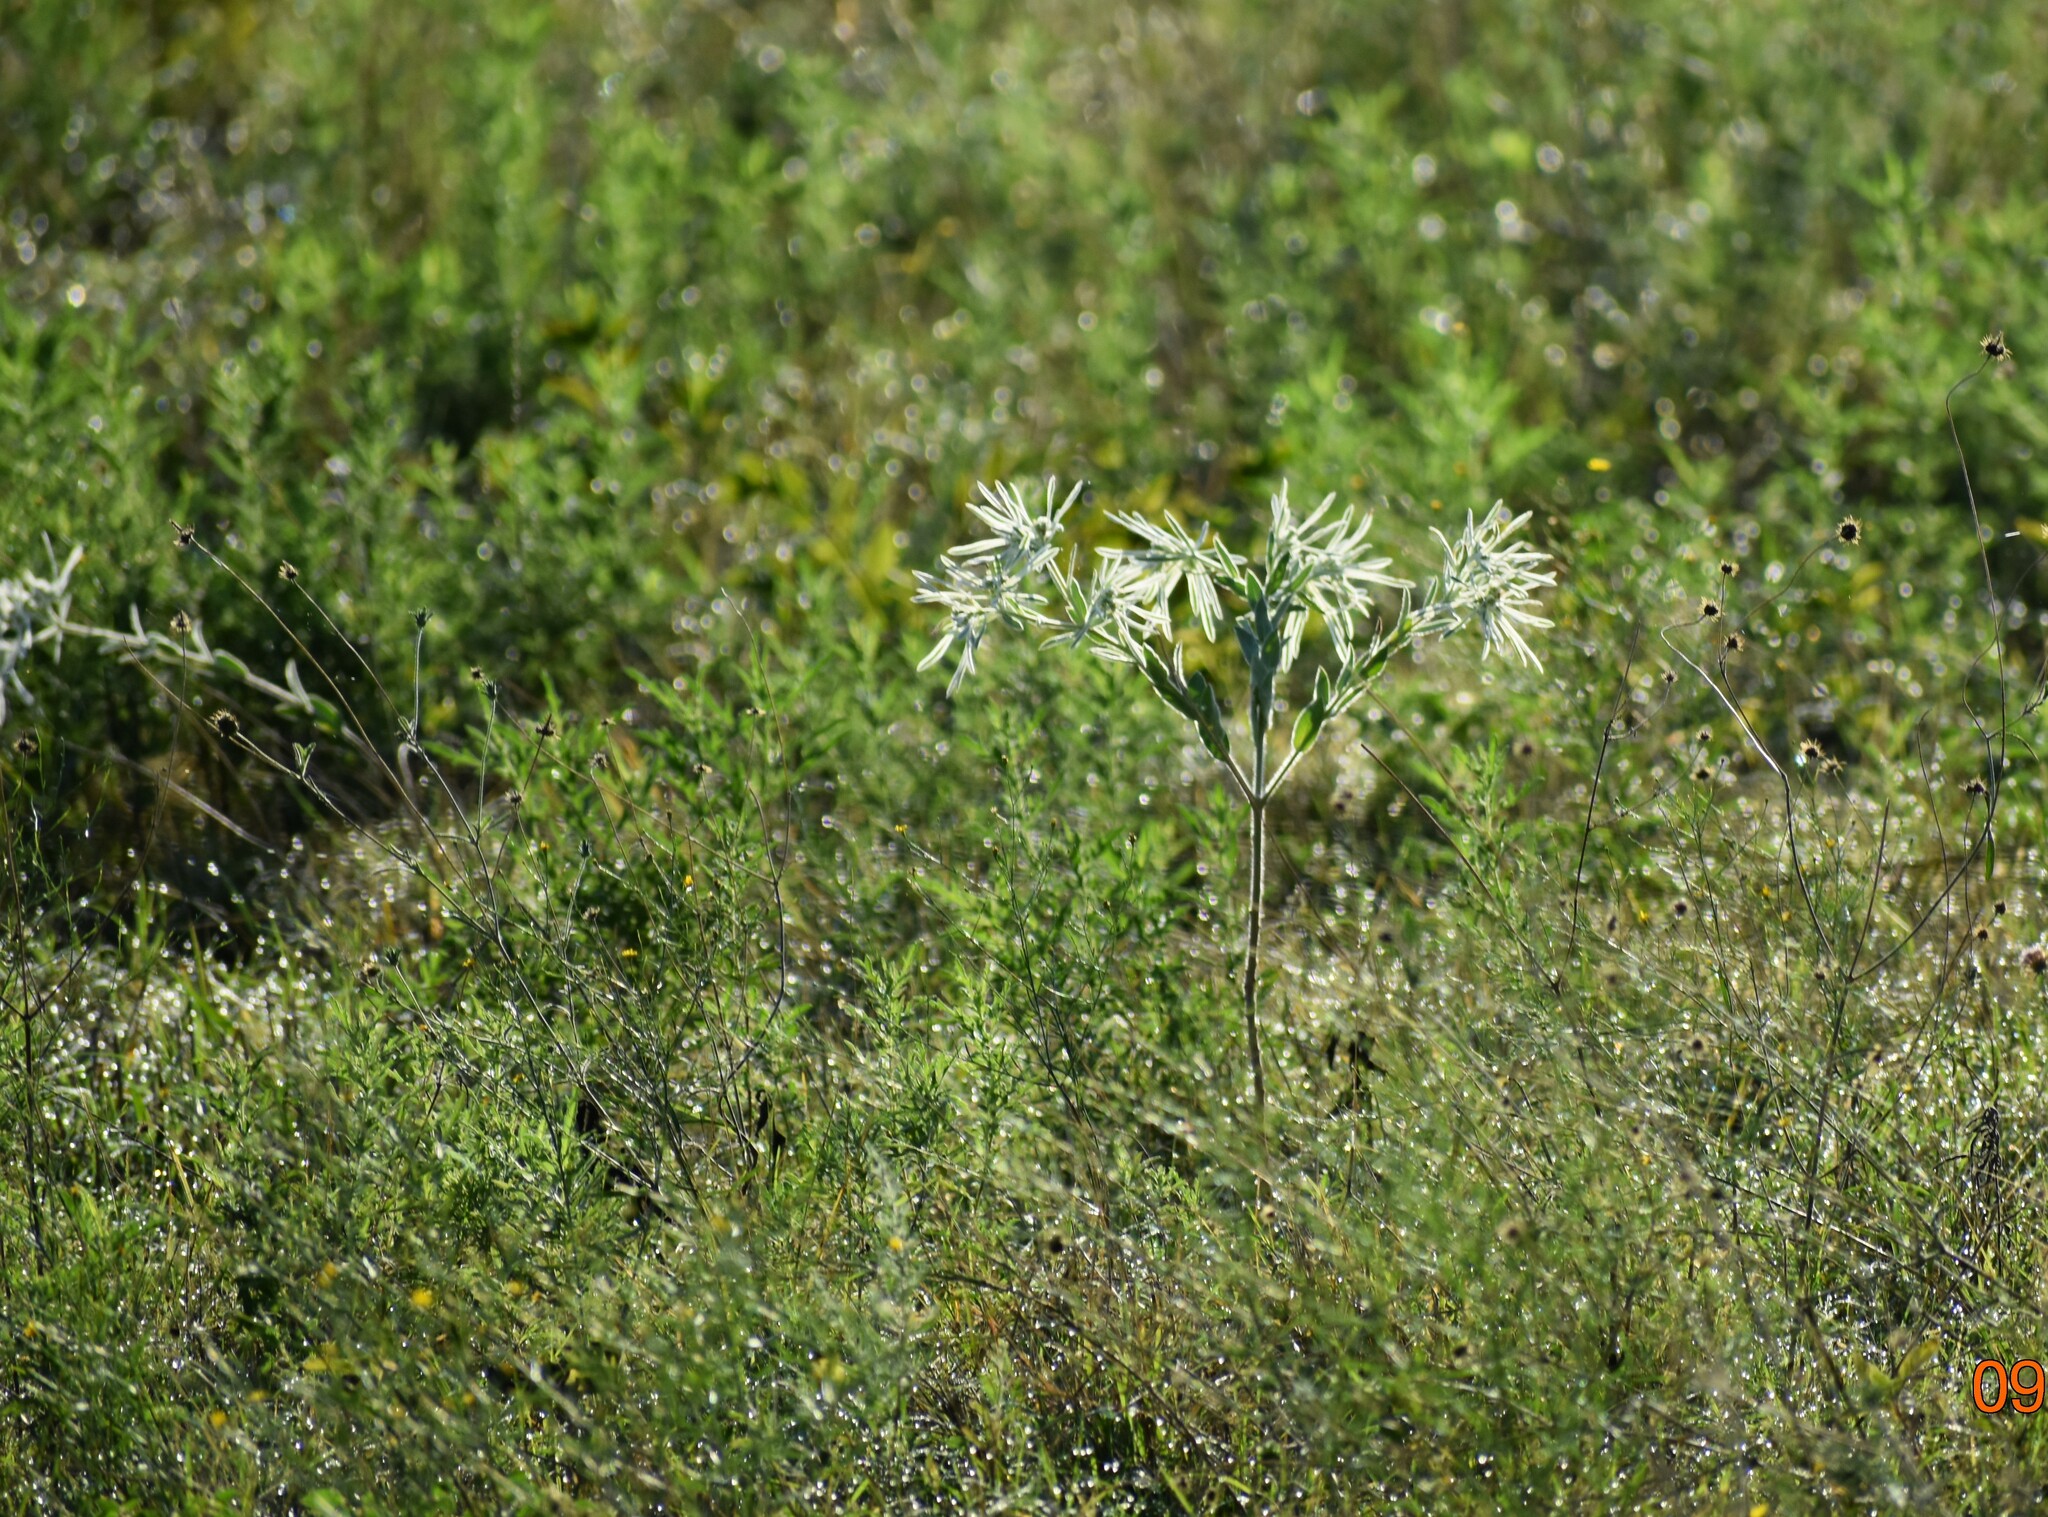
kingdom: Plantae
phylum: Tracheophyta
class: Magnoliopsida
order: Malpighiales
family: Euphorbiaceae
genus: Euphorbia
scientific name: Euphorbia bicolor
